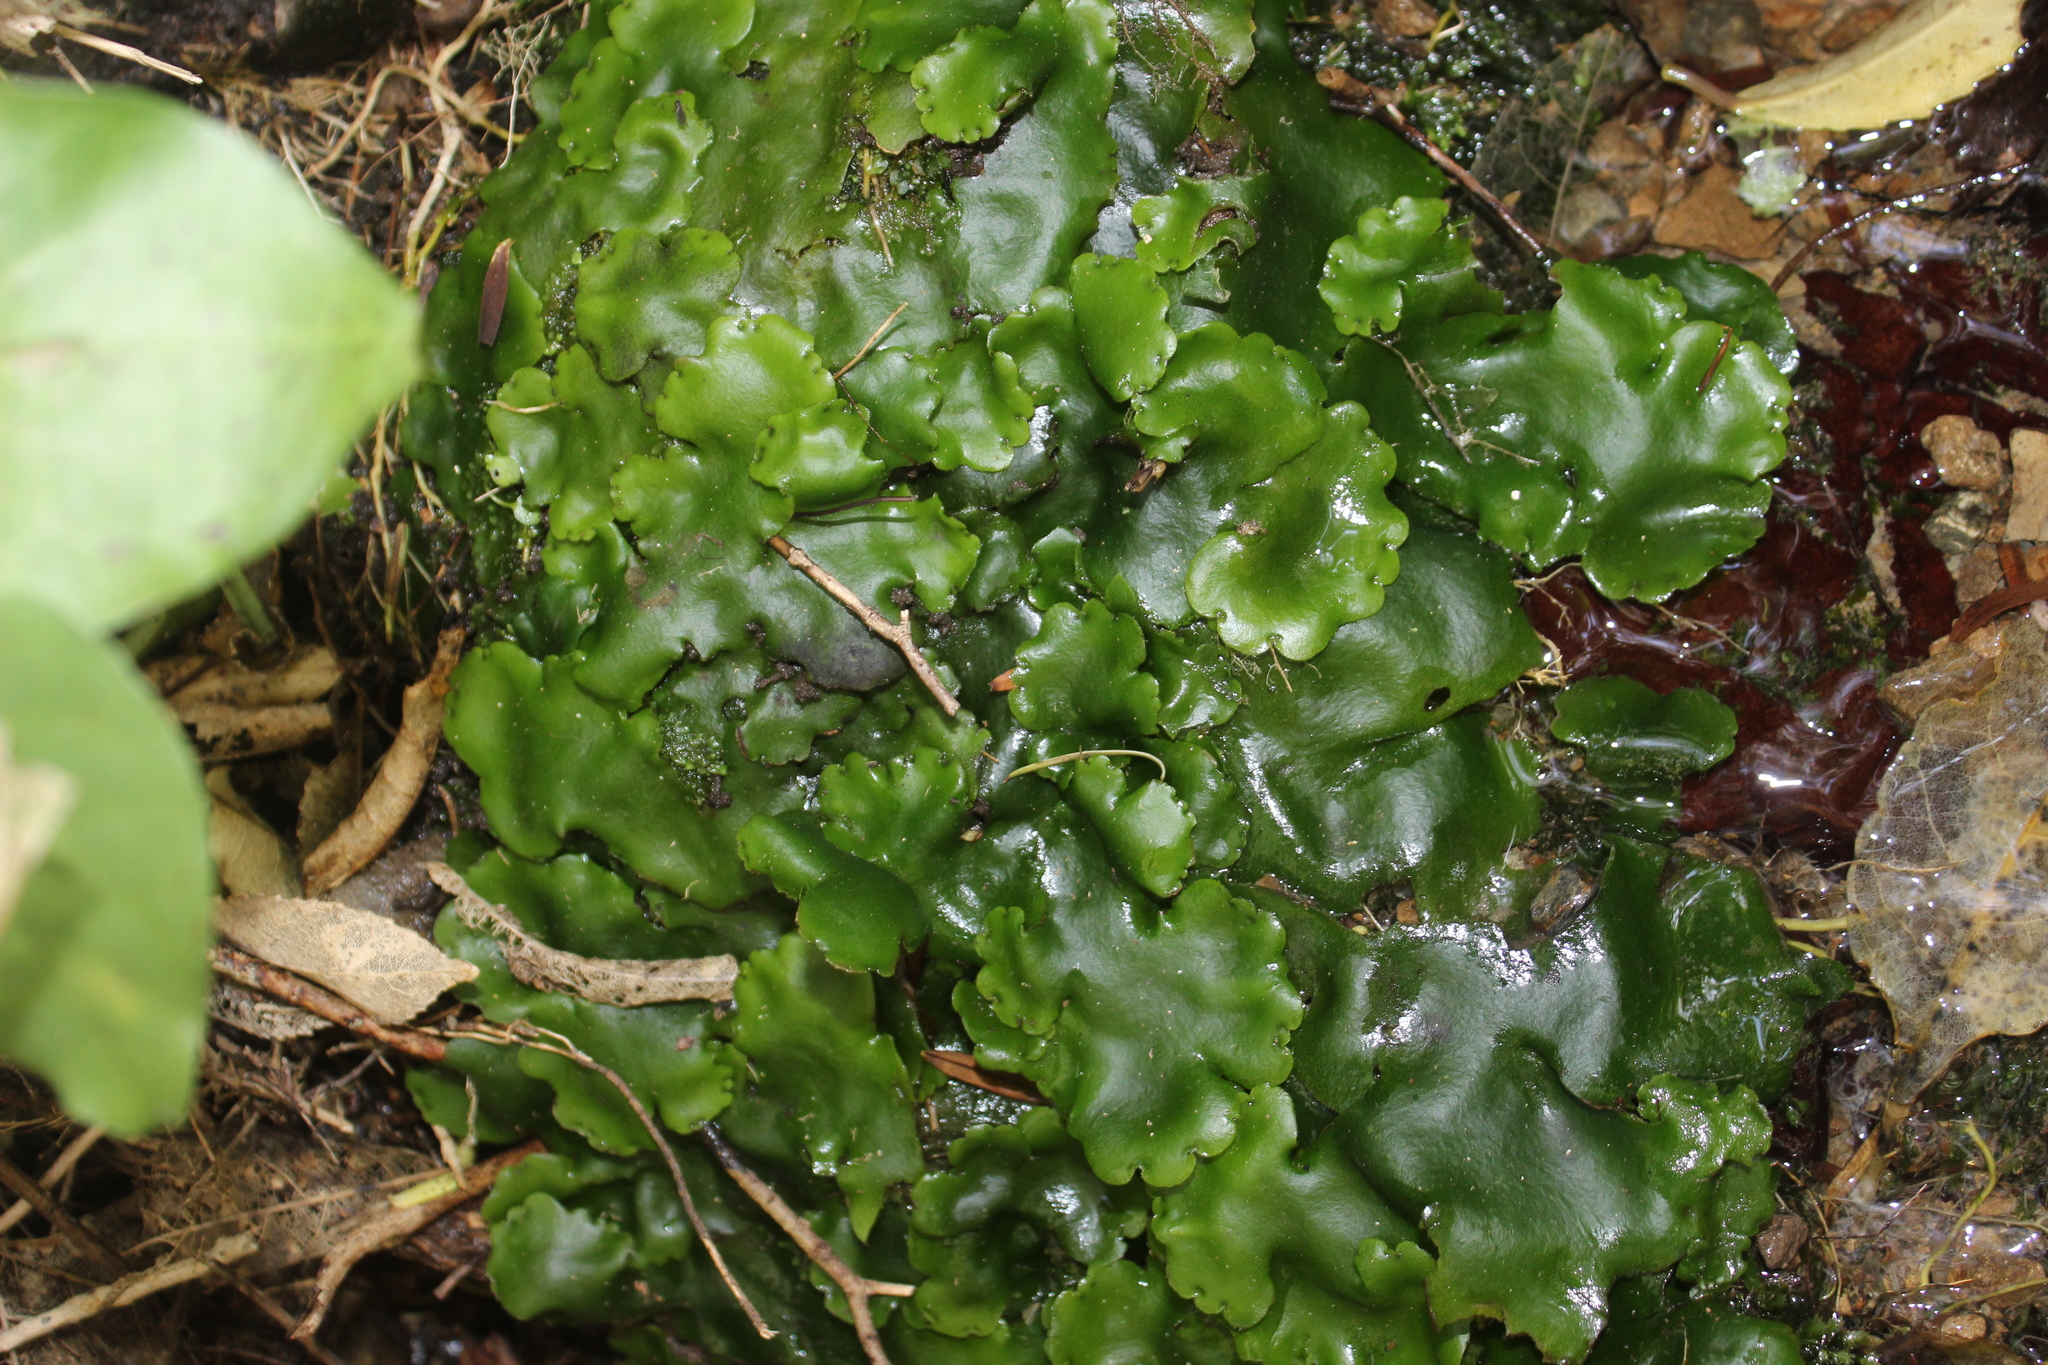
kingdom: Plantae
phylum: Marchantiophyta
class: Marchantiopsida
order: Marchantiales
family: Monocleaceae
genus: Monoclea
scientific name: Monoclea forsteri
